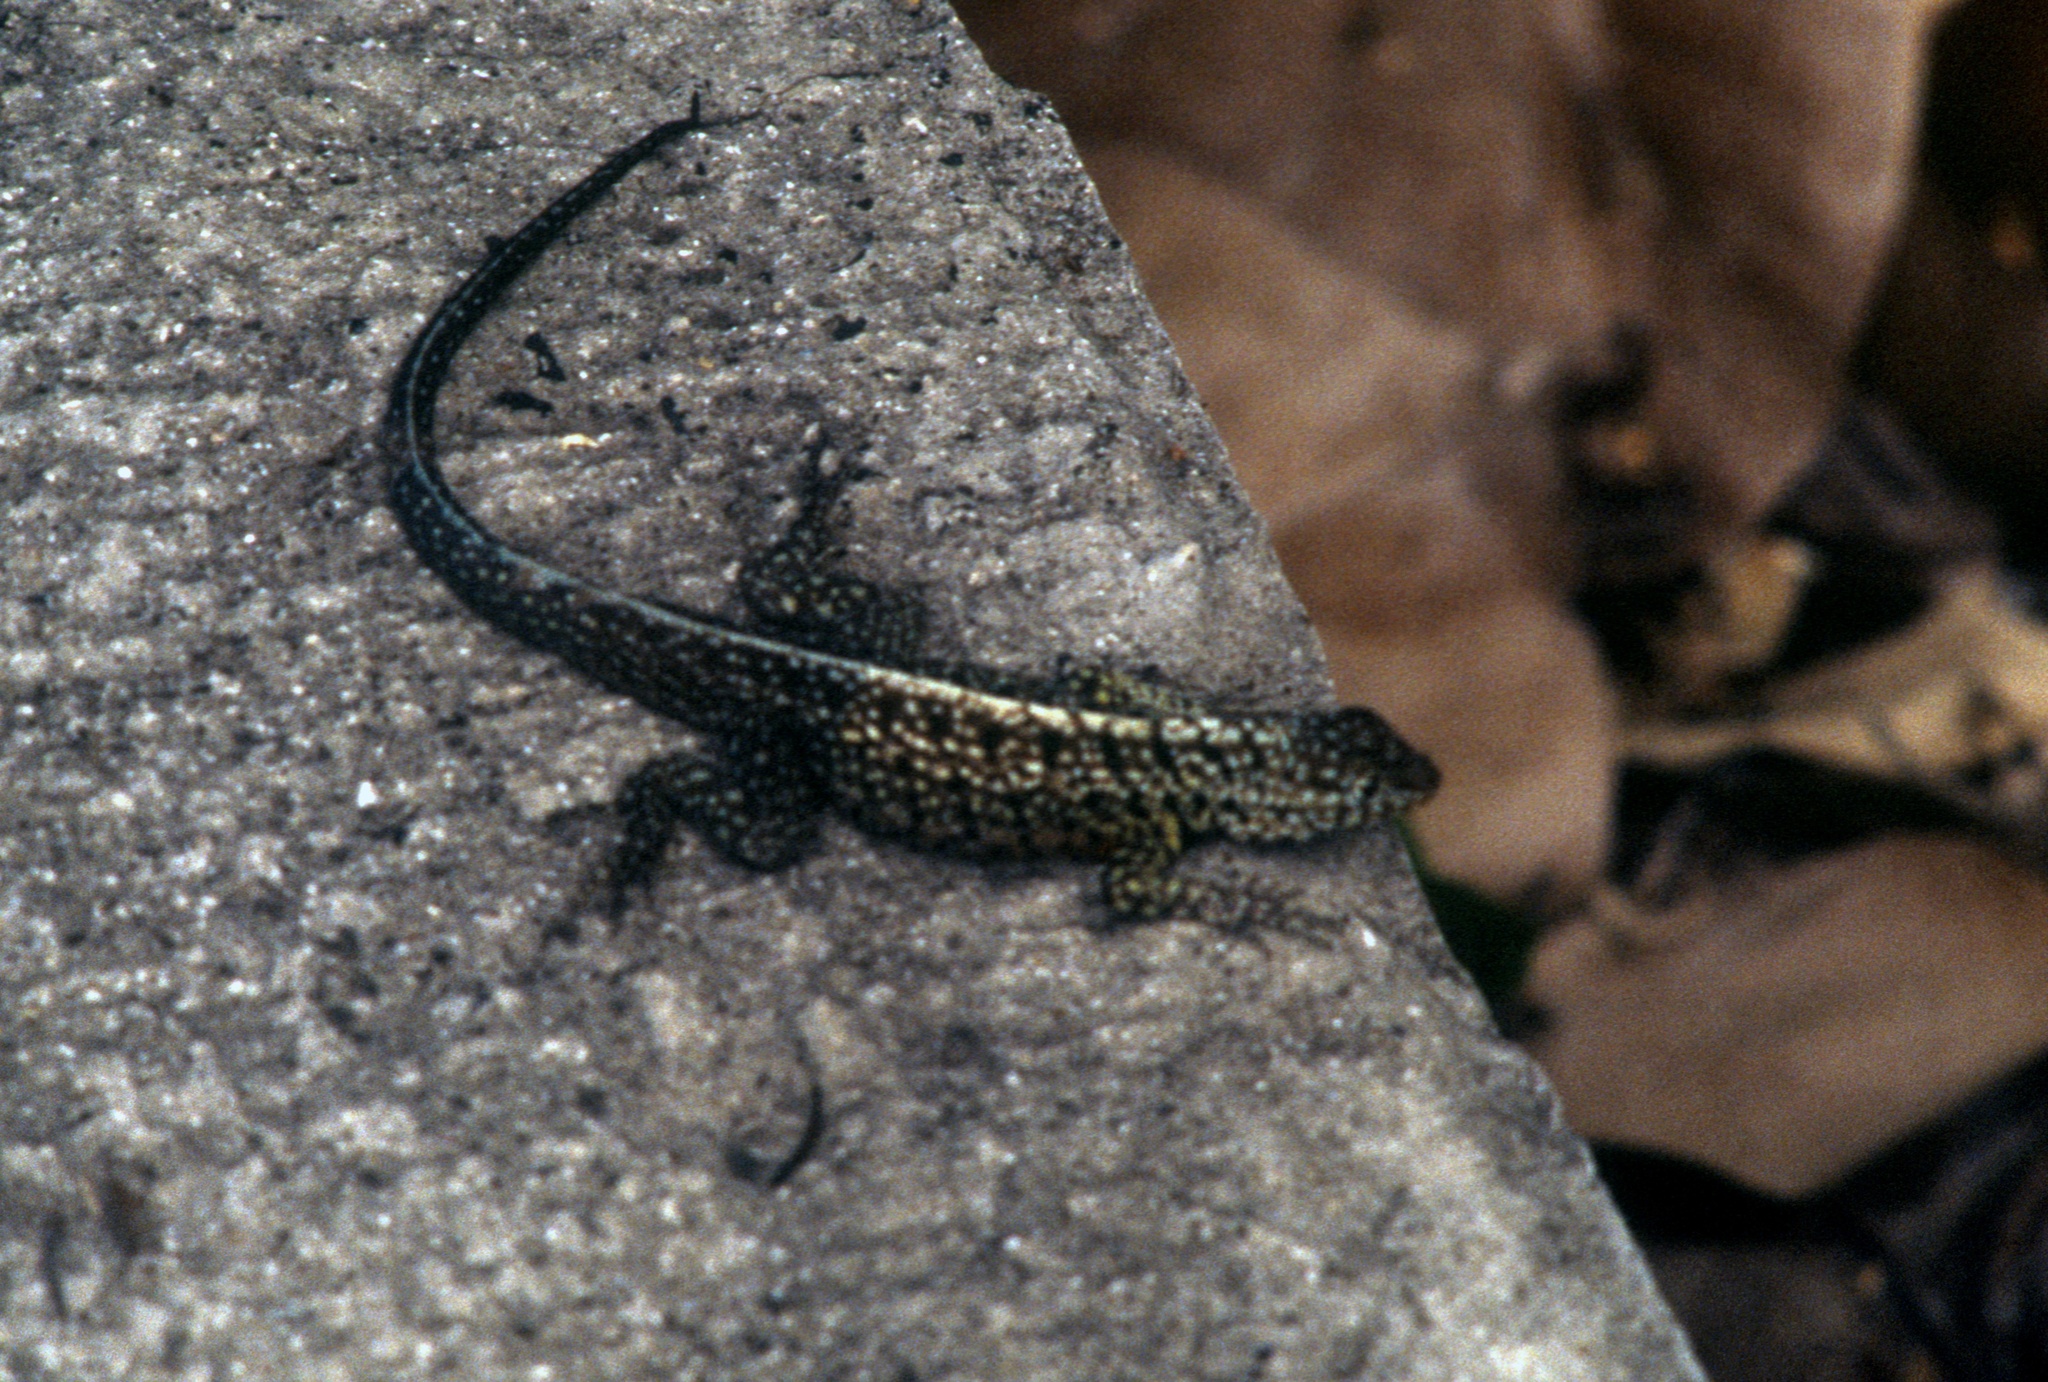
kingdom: Animalia
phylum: Chordata
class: Squamata
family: Tropiduridae
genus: Microlophus
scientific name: Microlophus indefatigabilis
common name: Galapagos lava lizard
